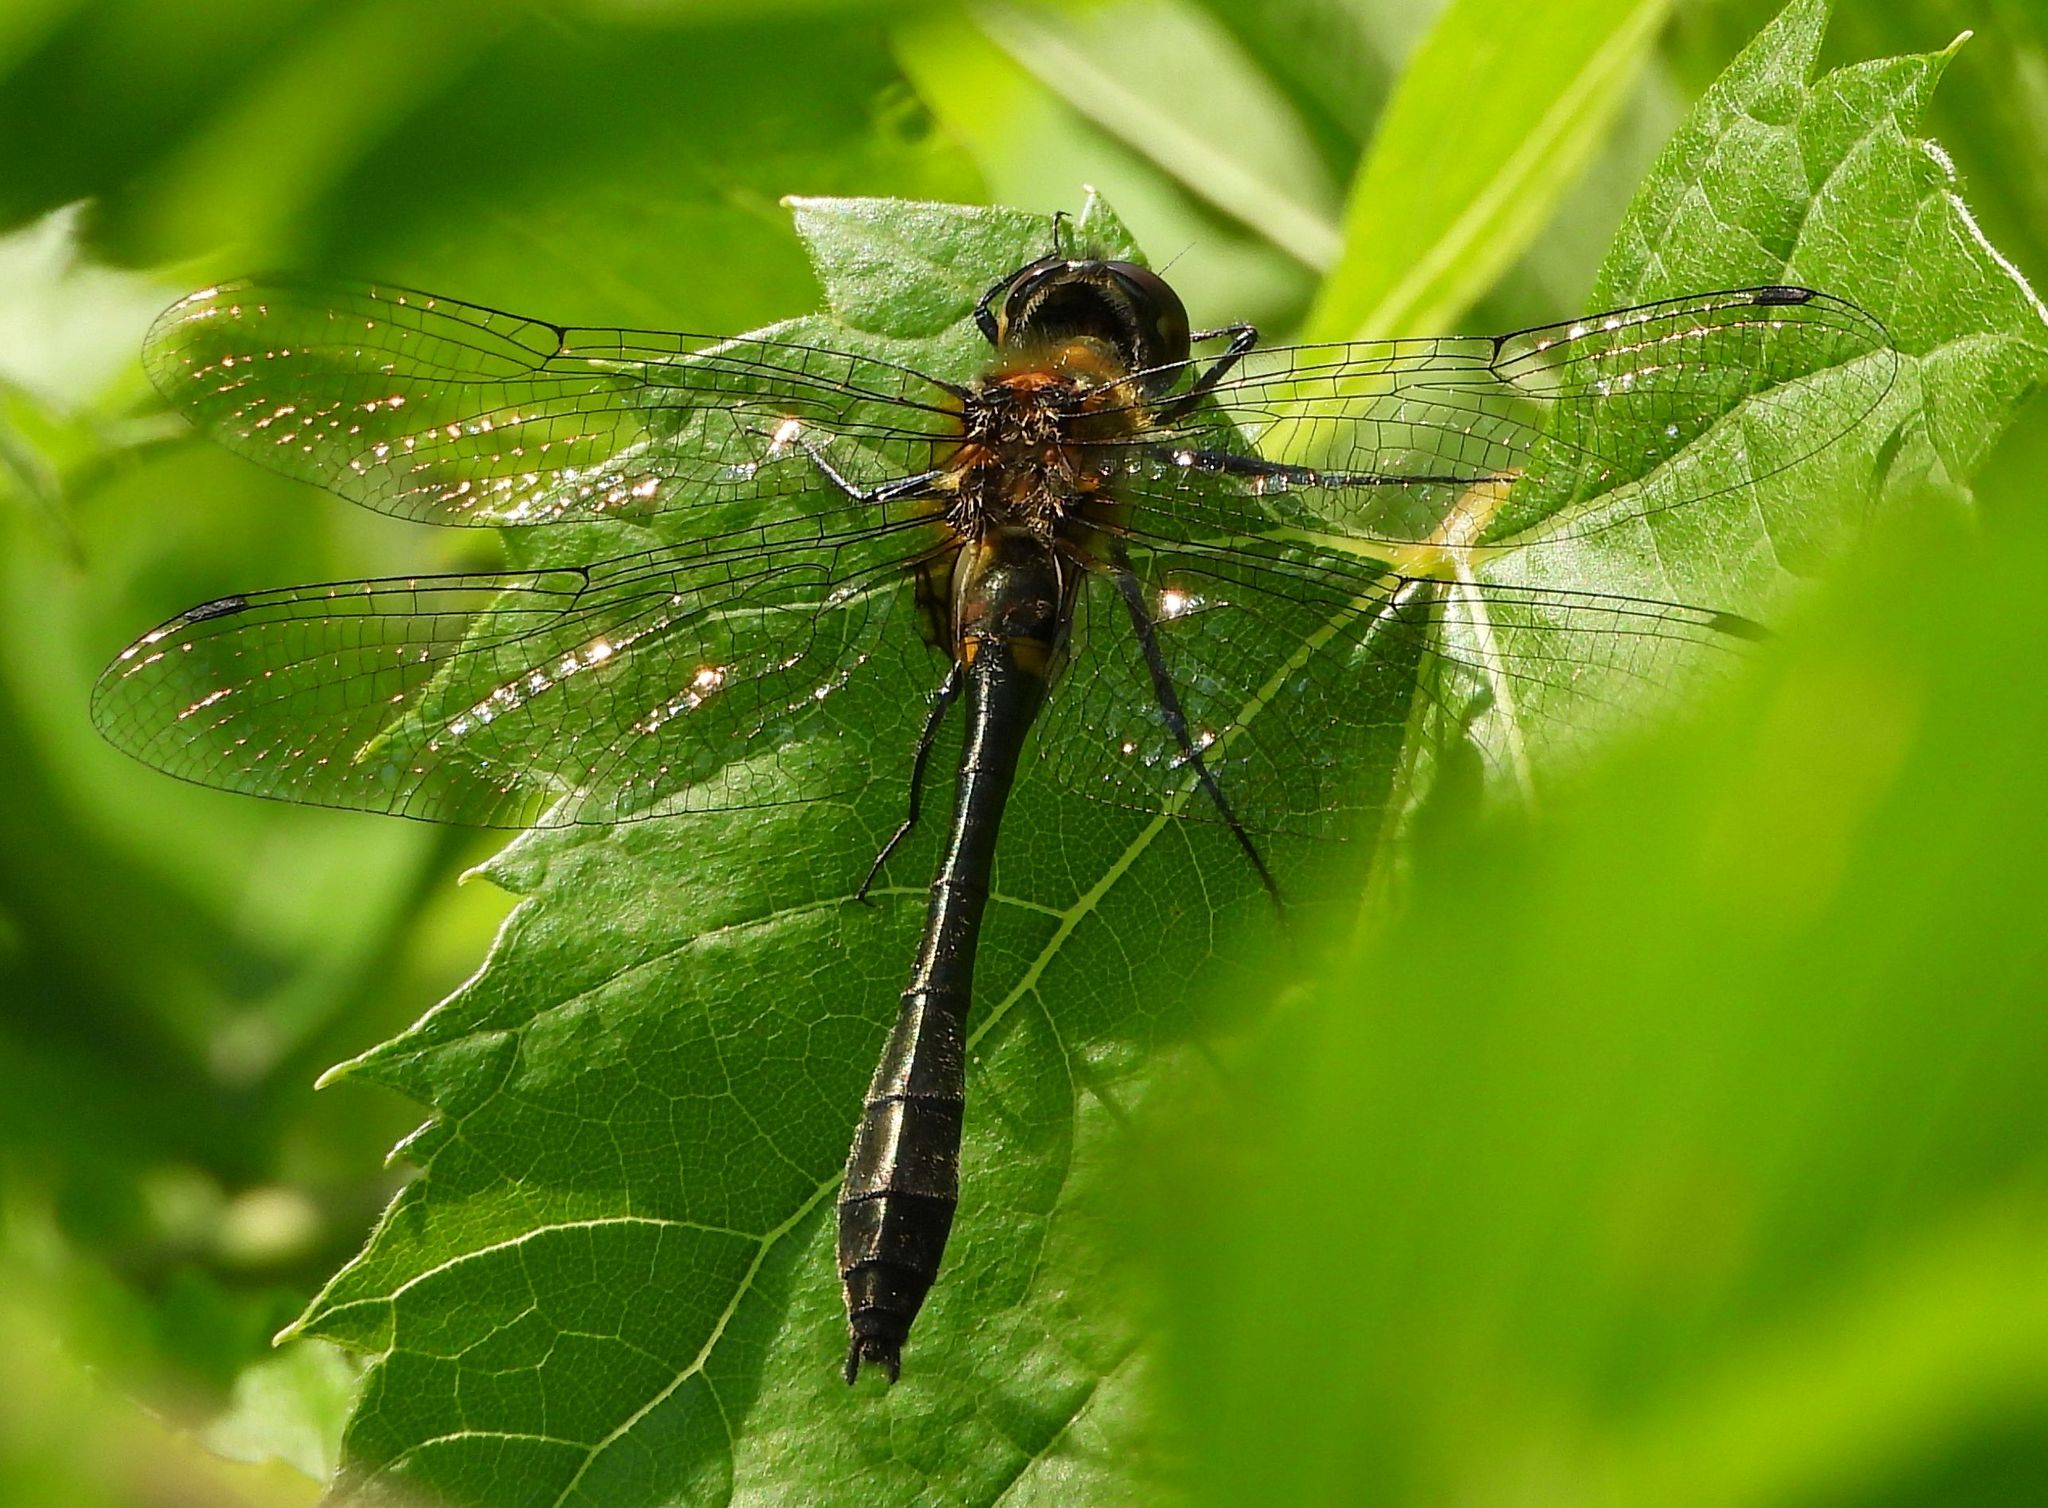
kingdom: Animalia
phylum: Arthropoda
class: Insecta
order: Odonata
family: Corduliidae
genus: Dorocordulia
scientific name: Dorocordulia libera
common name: Racket-tailed emerald
